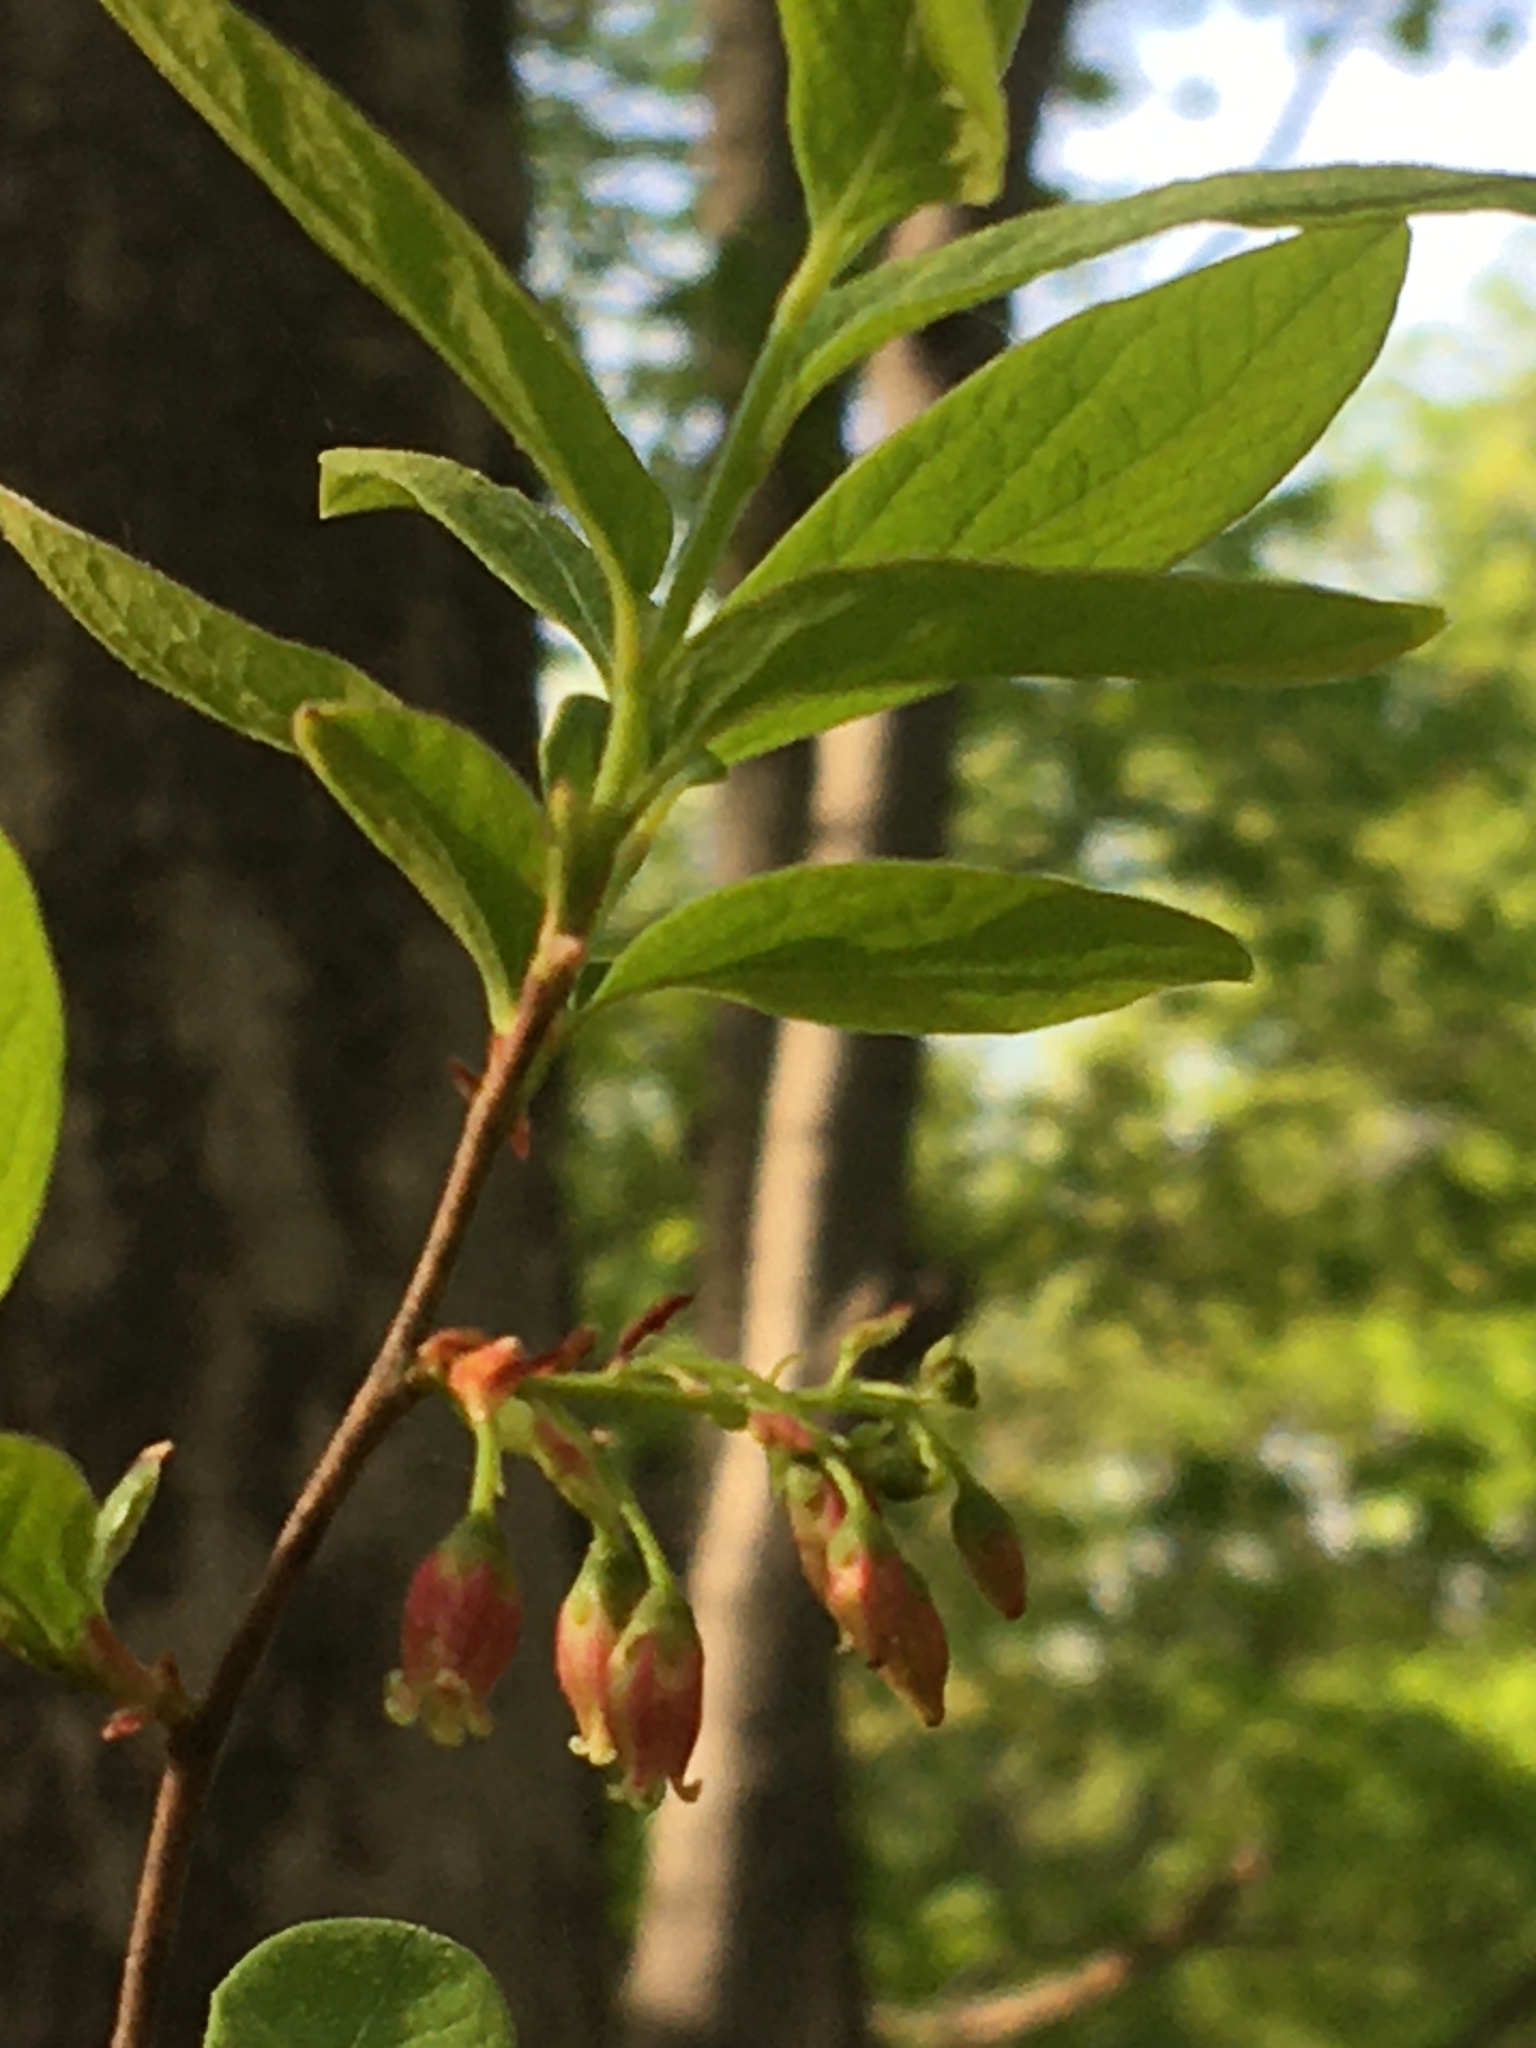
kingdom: Plantae
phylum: Tracheophyta
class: Magnoliopsida
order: Ericales
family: Ericaceae
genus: Gaylussacia
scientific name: Gaylussacia baccata
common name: Black huckleberry
